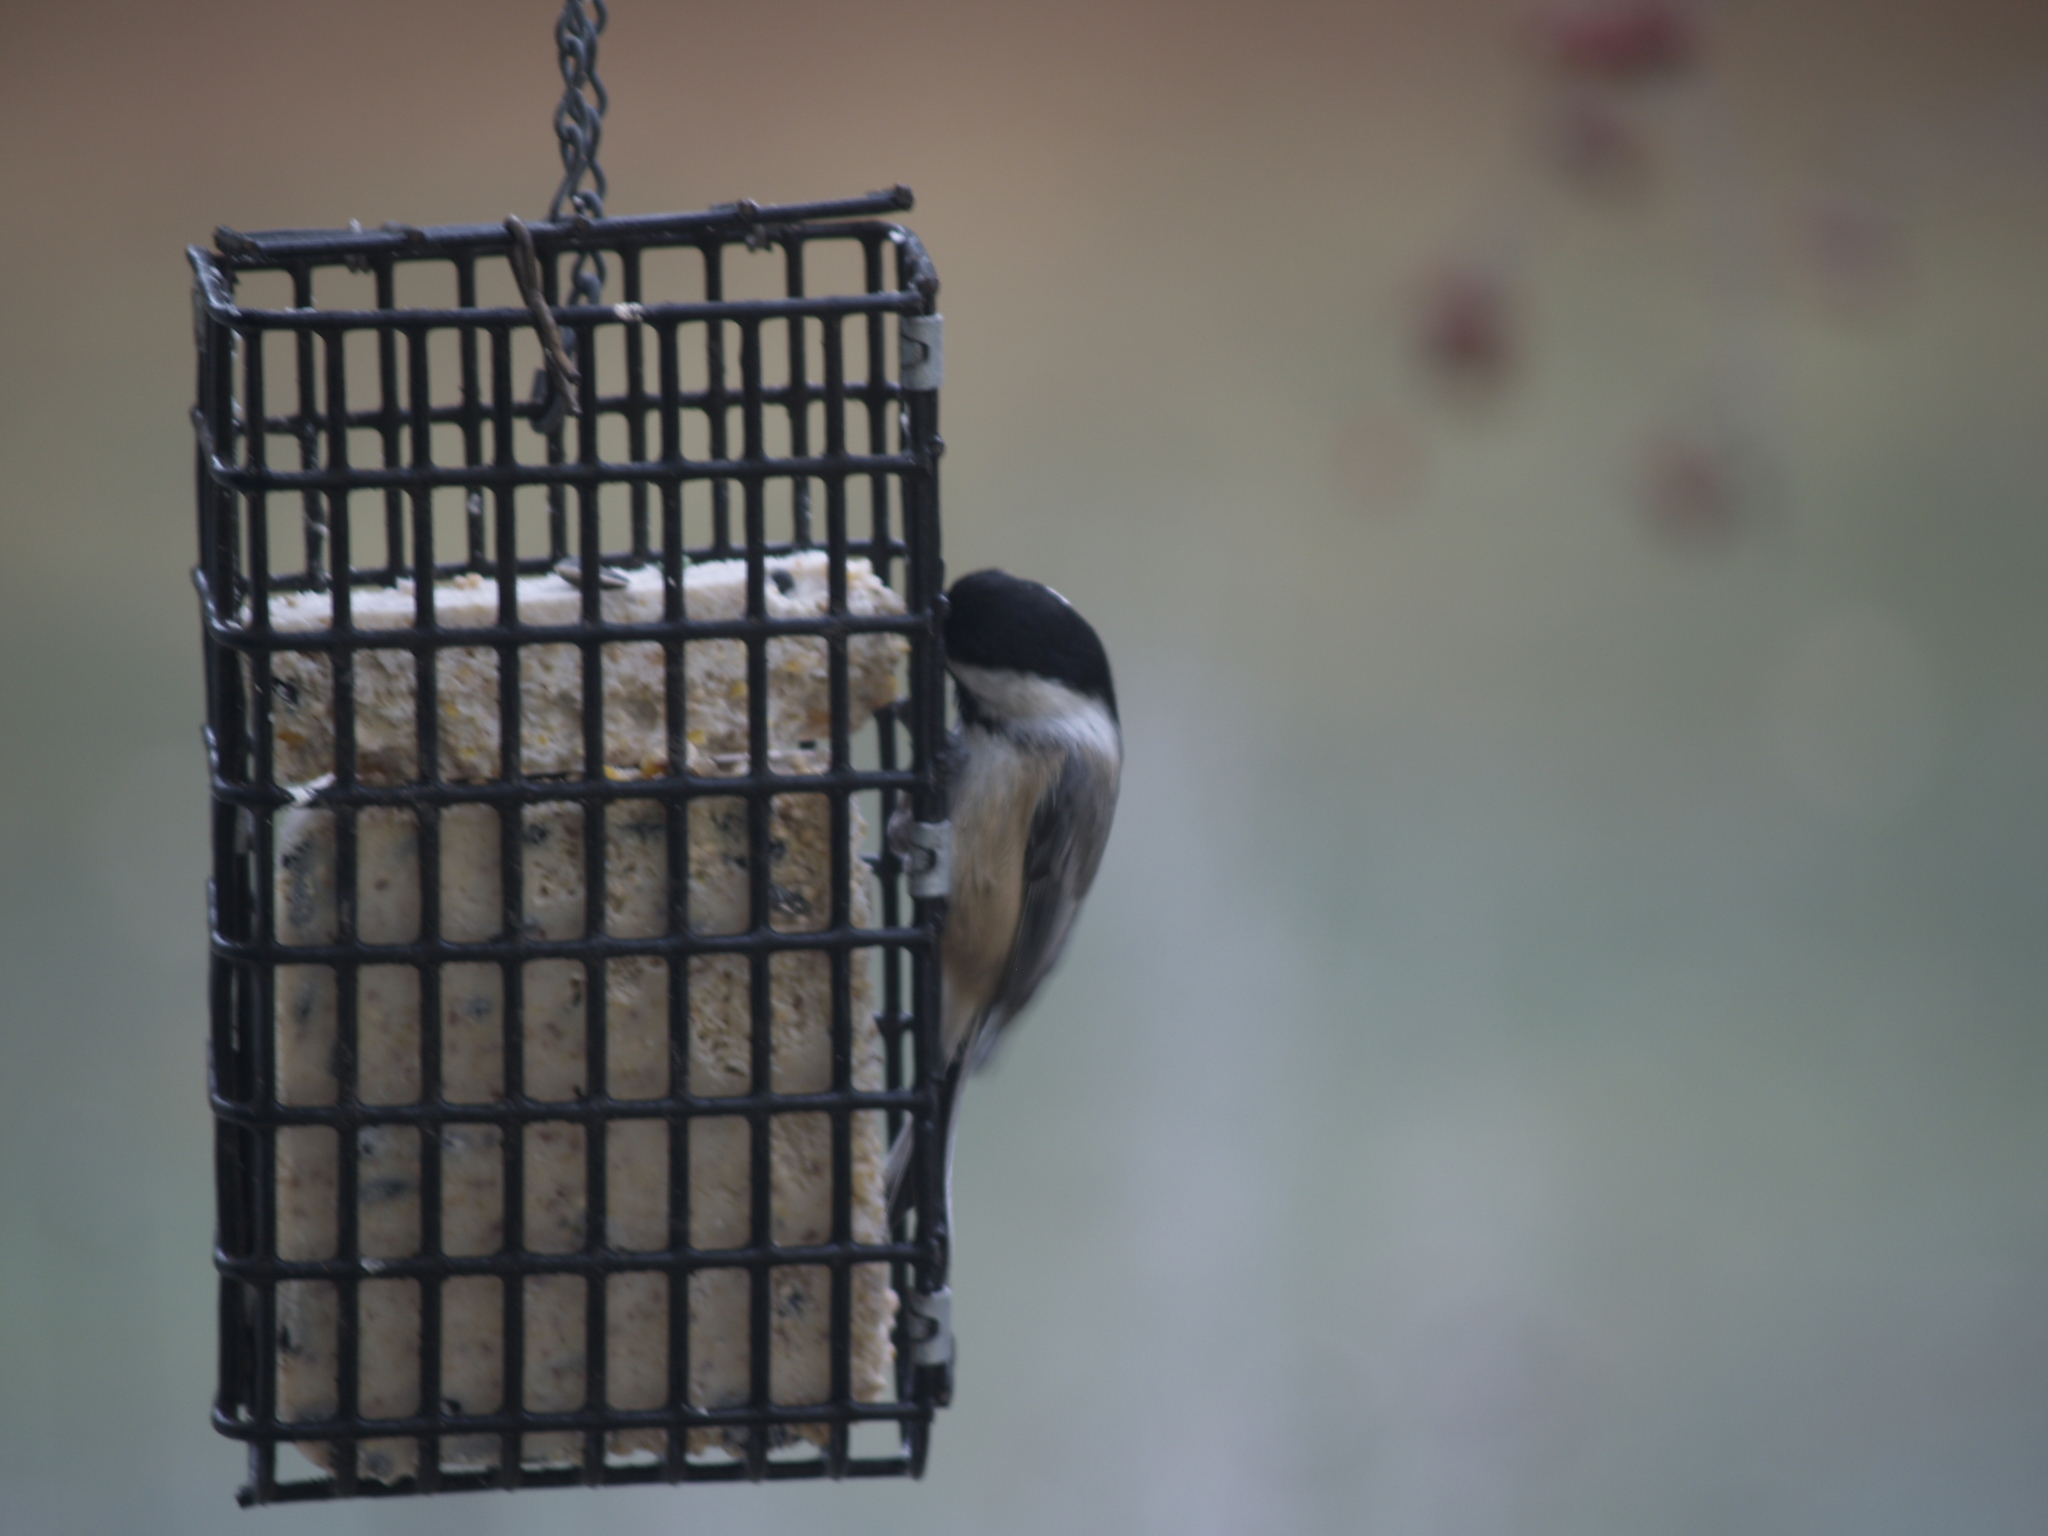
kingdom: Animalia
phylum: Chordata
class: Aves
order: Passeriformes
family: Paridae
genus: Poecile
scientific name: Poecile atricapillus
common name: Black-capped chickadee
